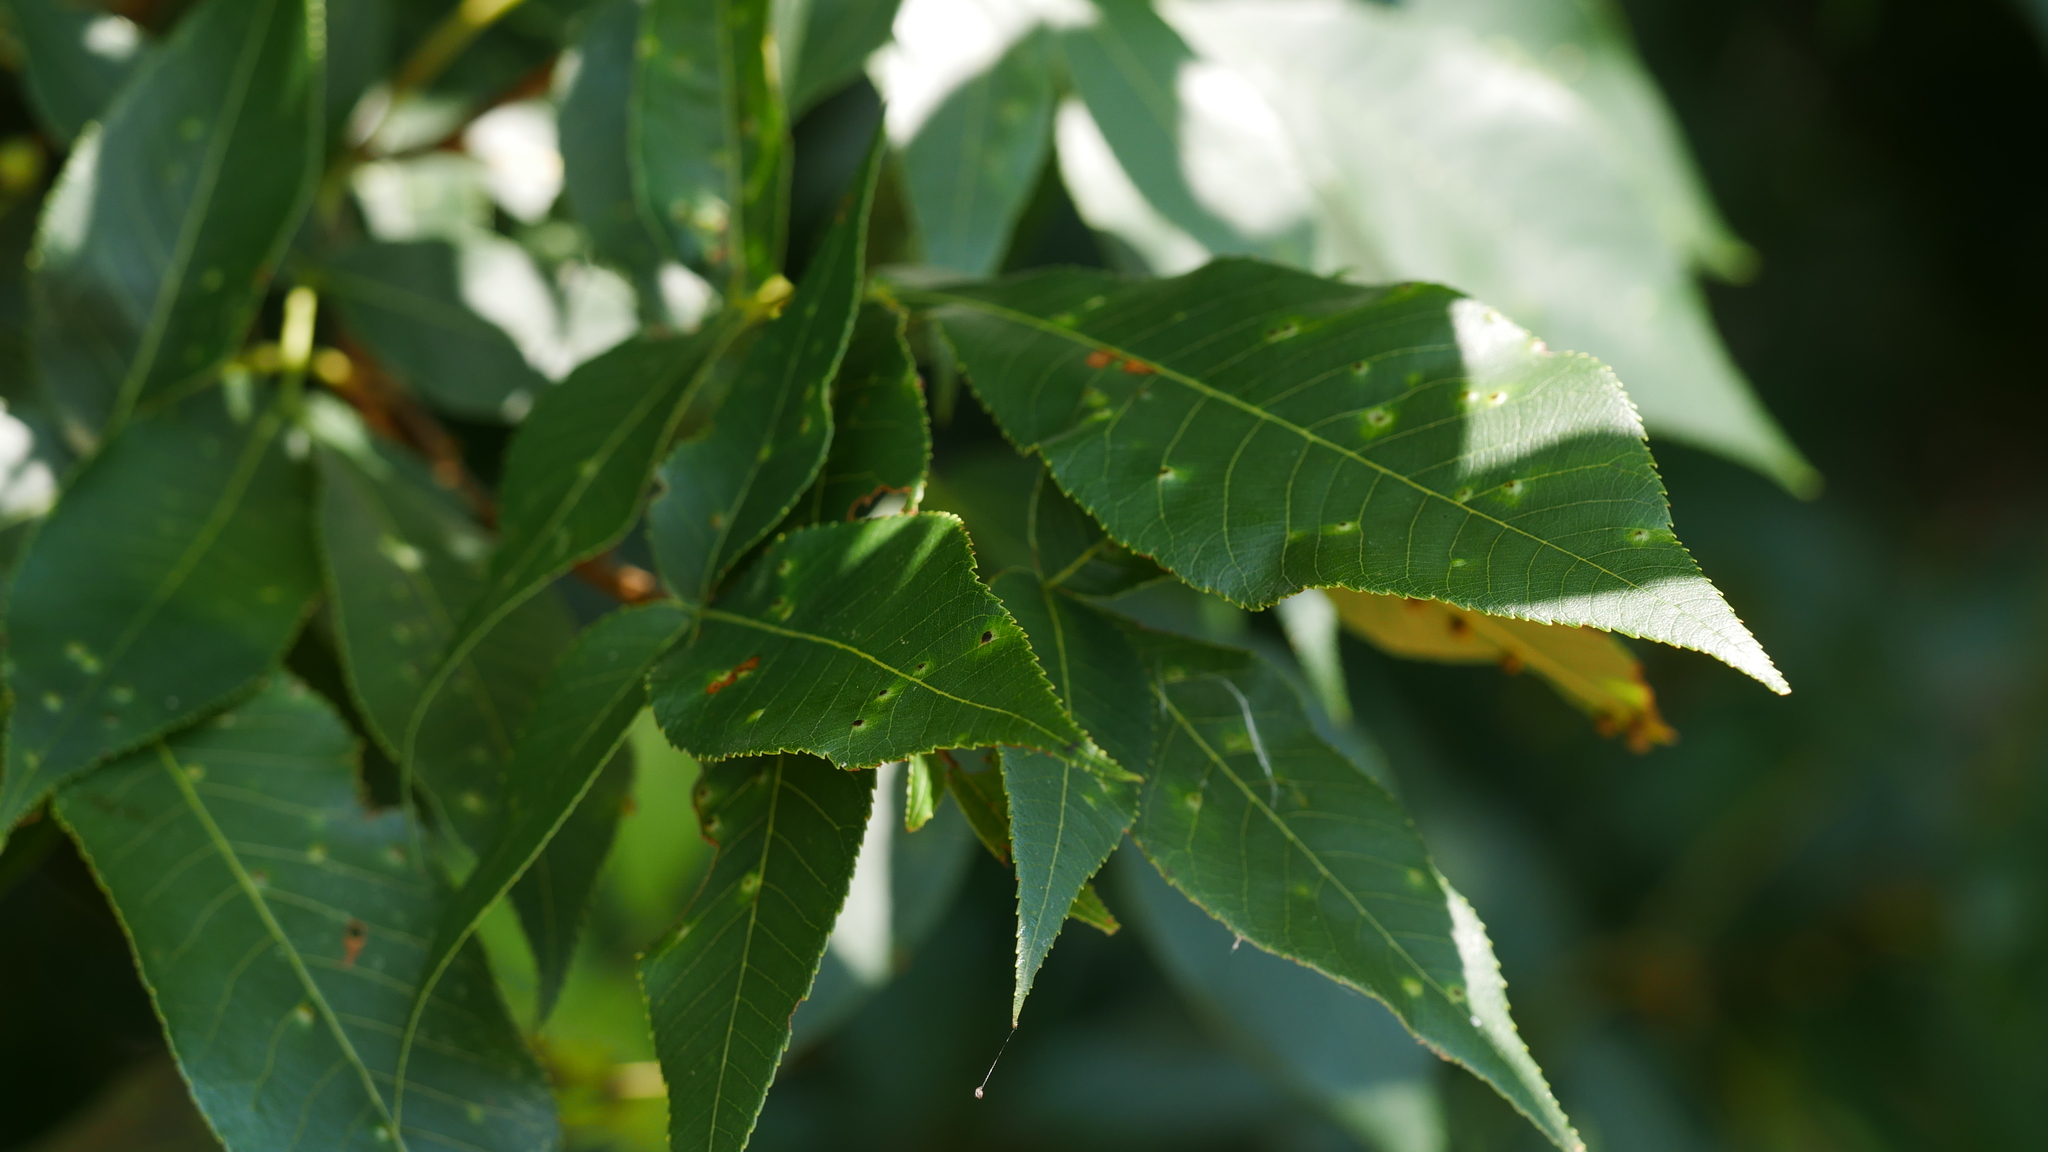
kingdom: Animalia
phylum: Arthropoda
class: Insecta
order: Diptera
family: Cecidomyiidae
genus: Caryomyia
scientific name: Caryomyia caryae
